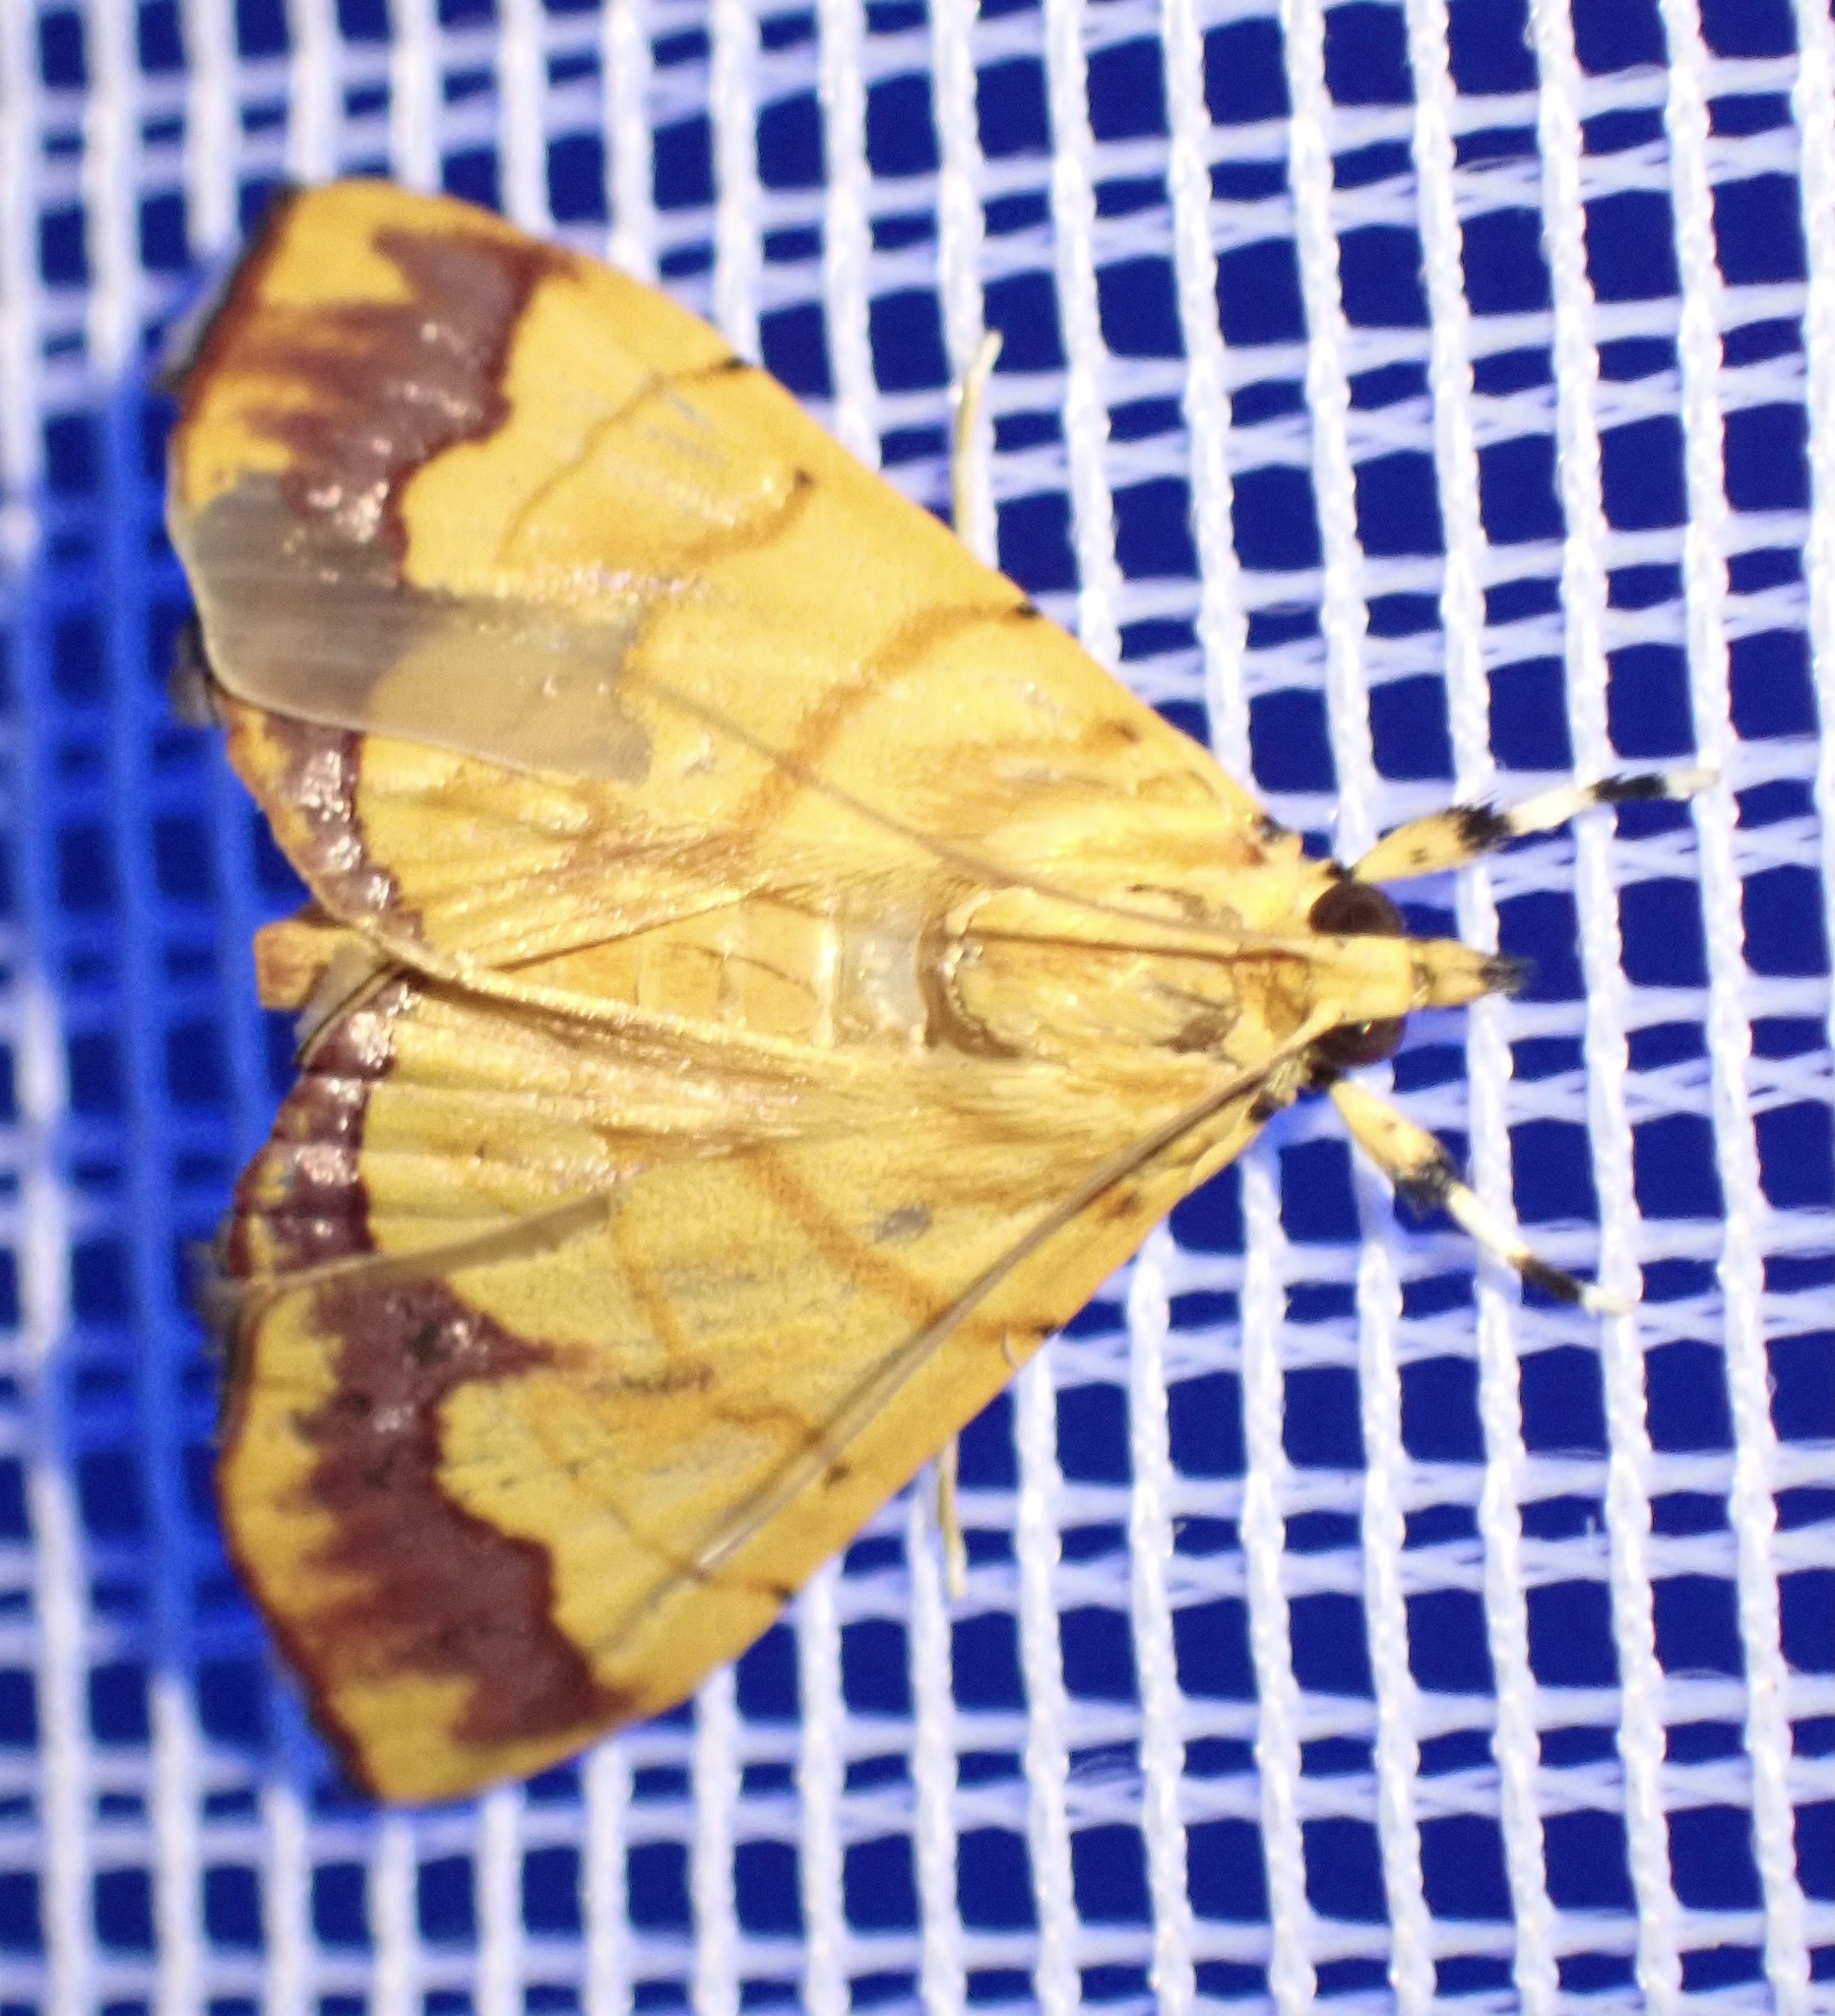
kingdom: Animalia
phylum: Arthropoda
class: Insecta
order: Lepidoptera
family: Crambidae
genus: Cryptosara
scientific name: Cryptosara caritalis
